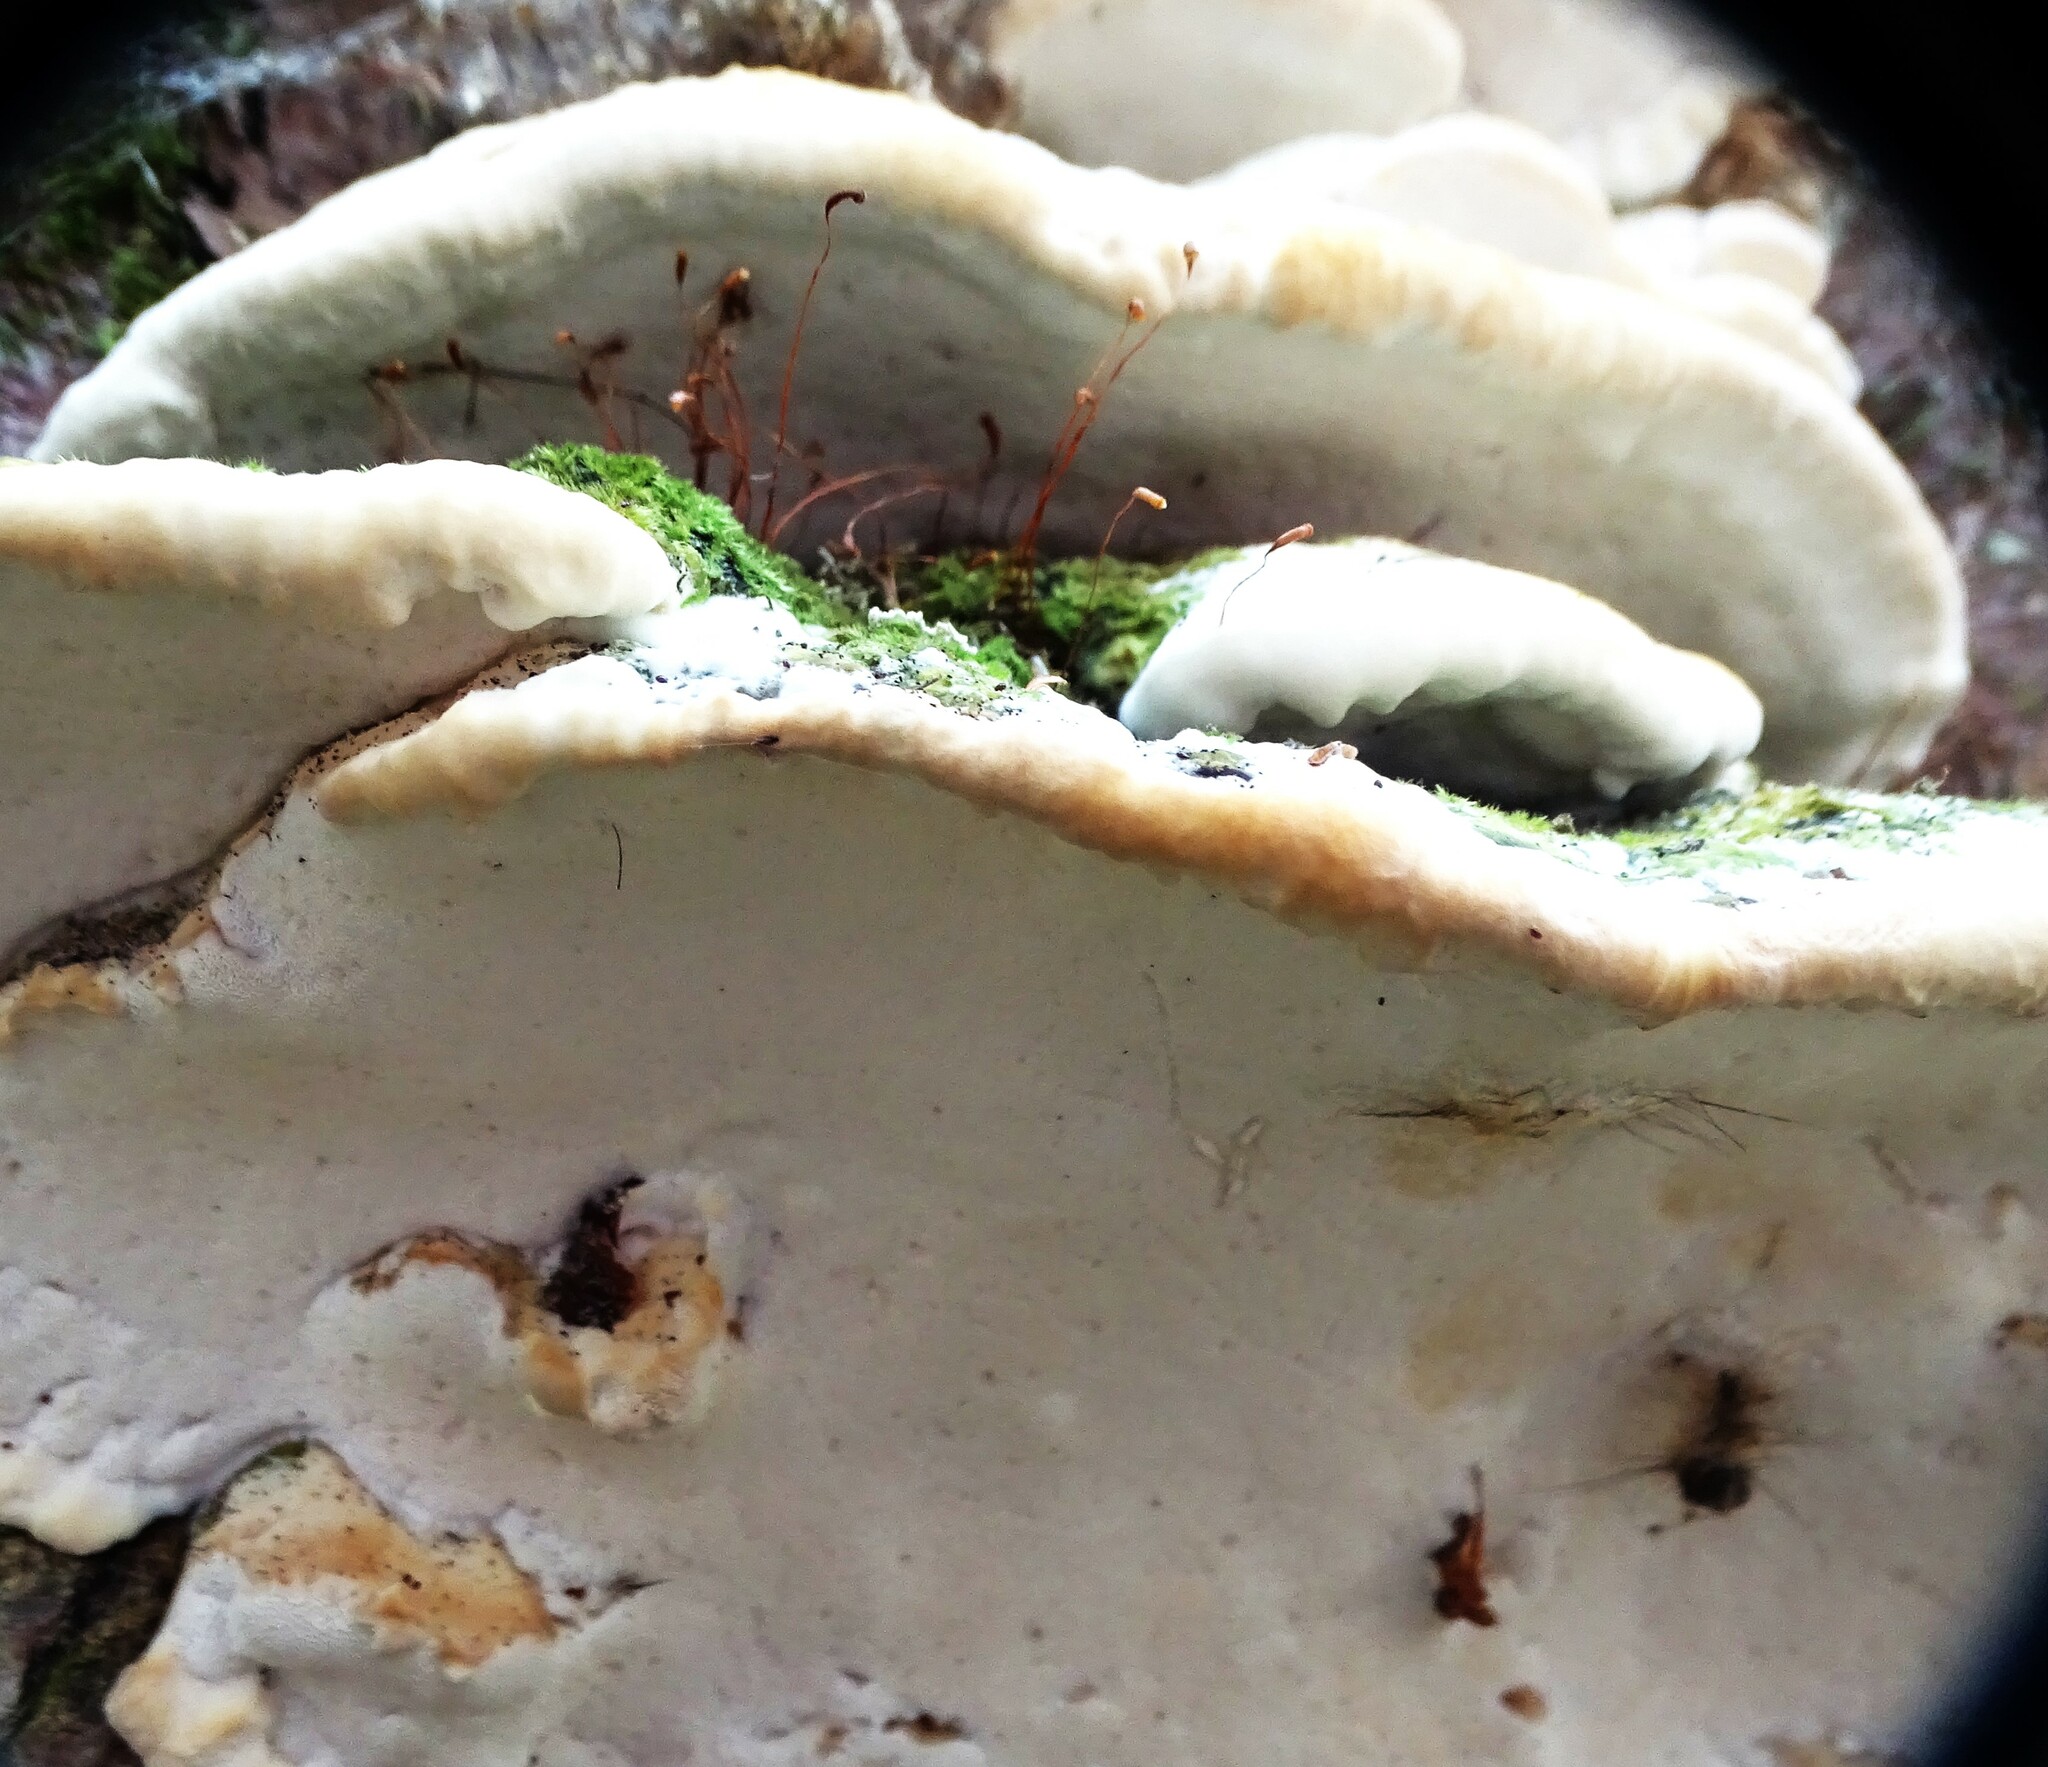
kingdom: Fungi
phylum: Basidiomycota
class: Agaricomycetes
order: Hymenochaetales
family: Oxyporaceae
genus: Oxyporus
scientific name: Oxyporus populinus
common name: Poplar bracket
